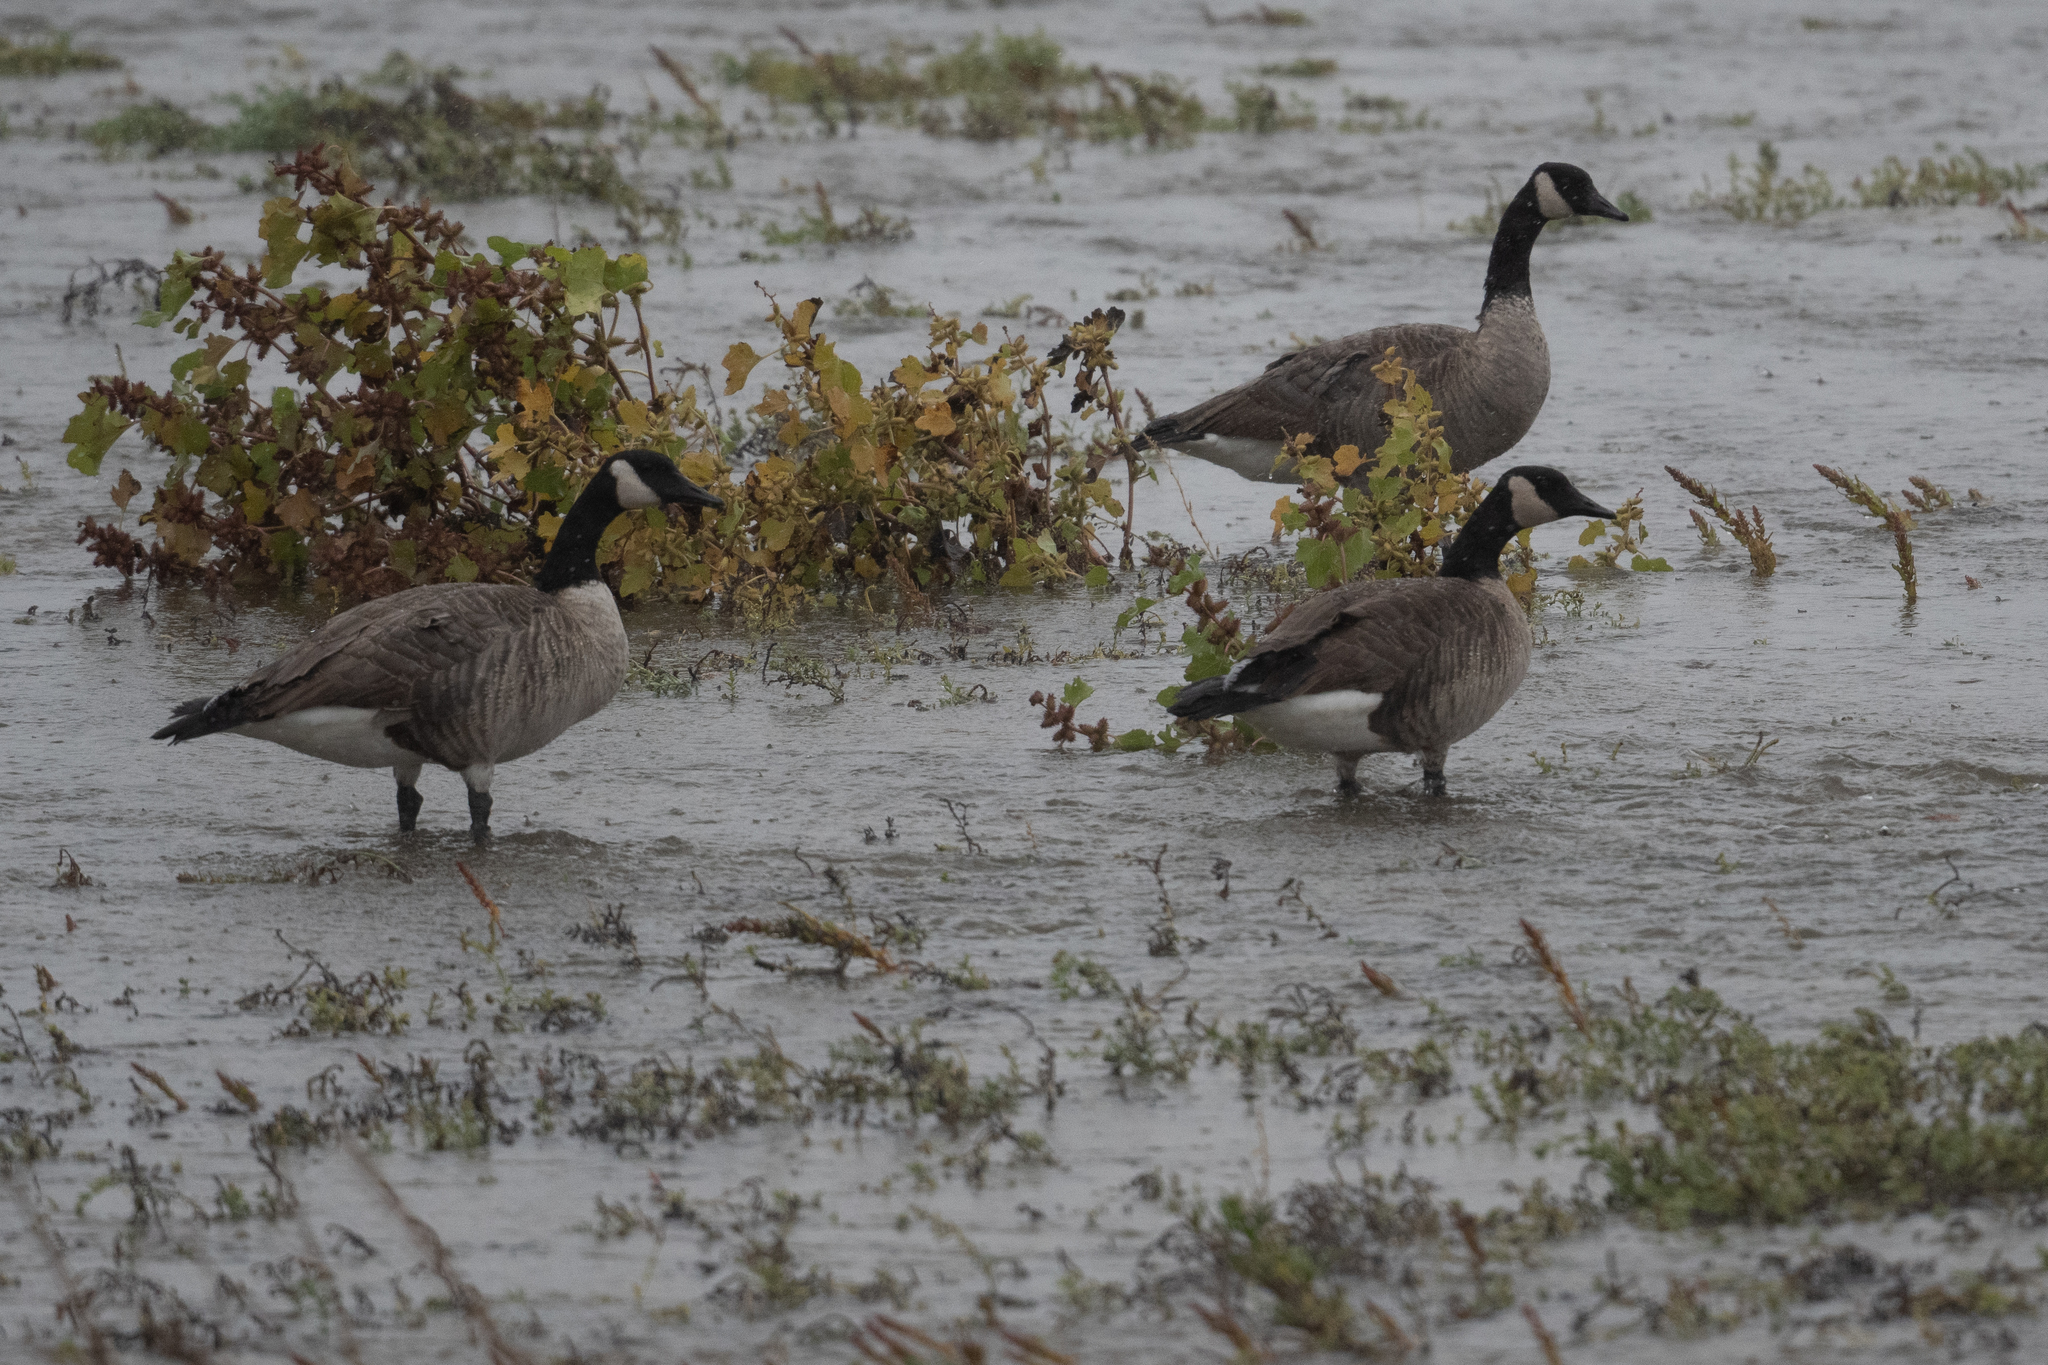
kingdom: Animalia
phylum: Chordata
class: Aves
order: Anseriformes
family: Anatidae
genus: Branta
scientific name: Branta canadensis
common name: Canada goose
